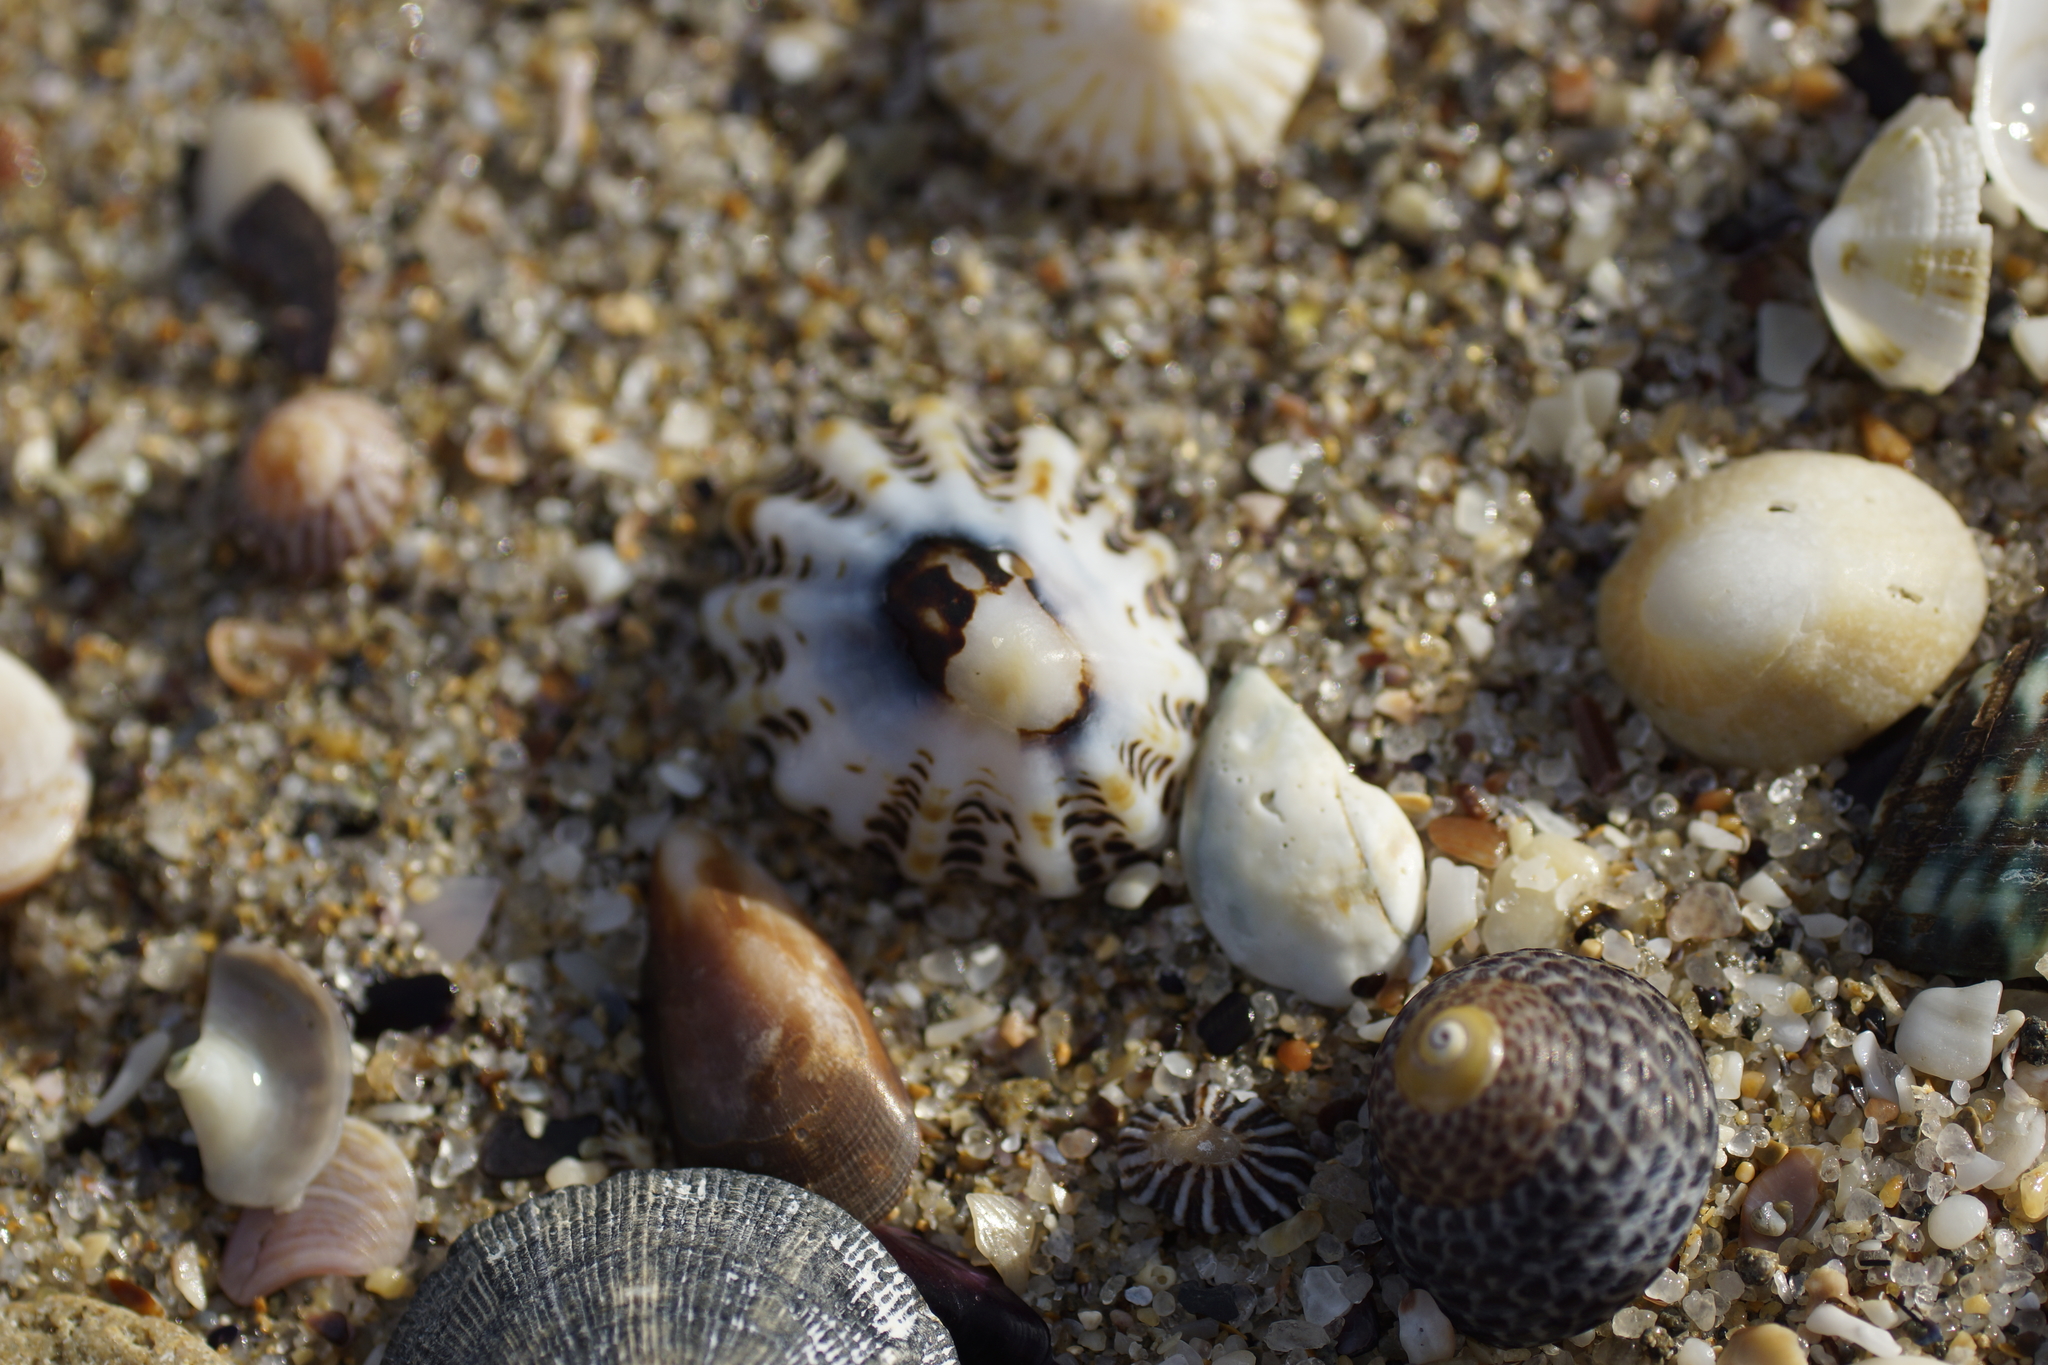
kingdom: Animalia
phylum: Mollusca
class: Gastropoda
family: Lottiidae
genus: Patelloida
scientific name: Patelloida alticostata
